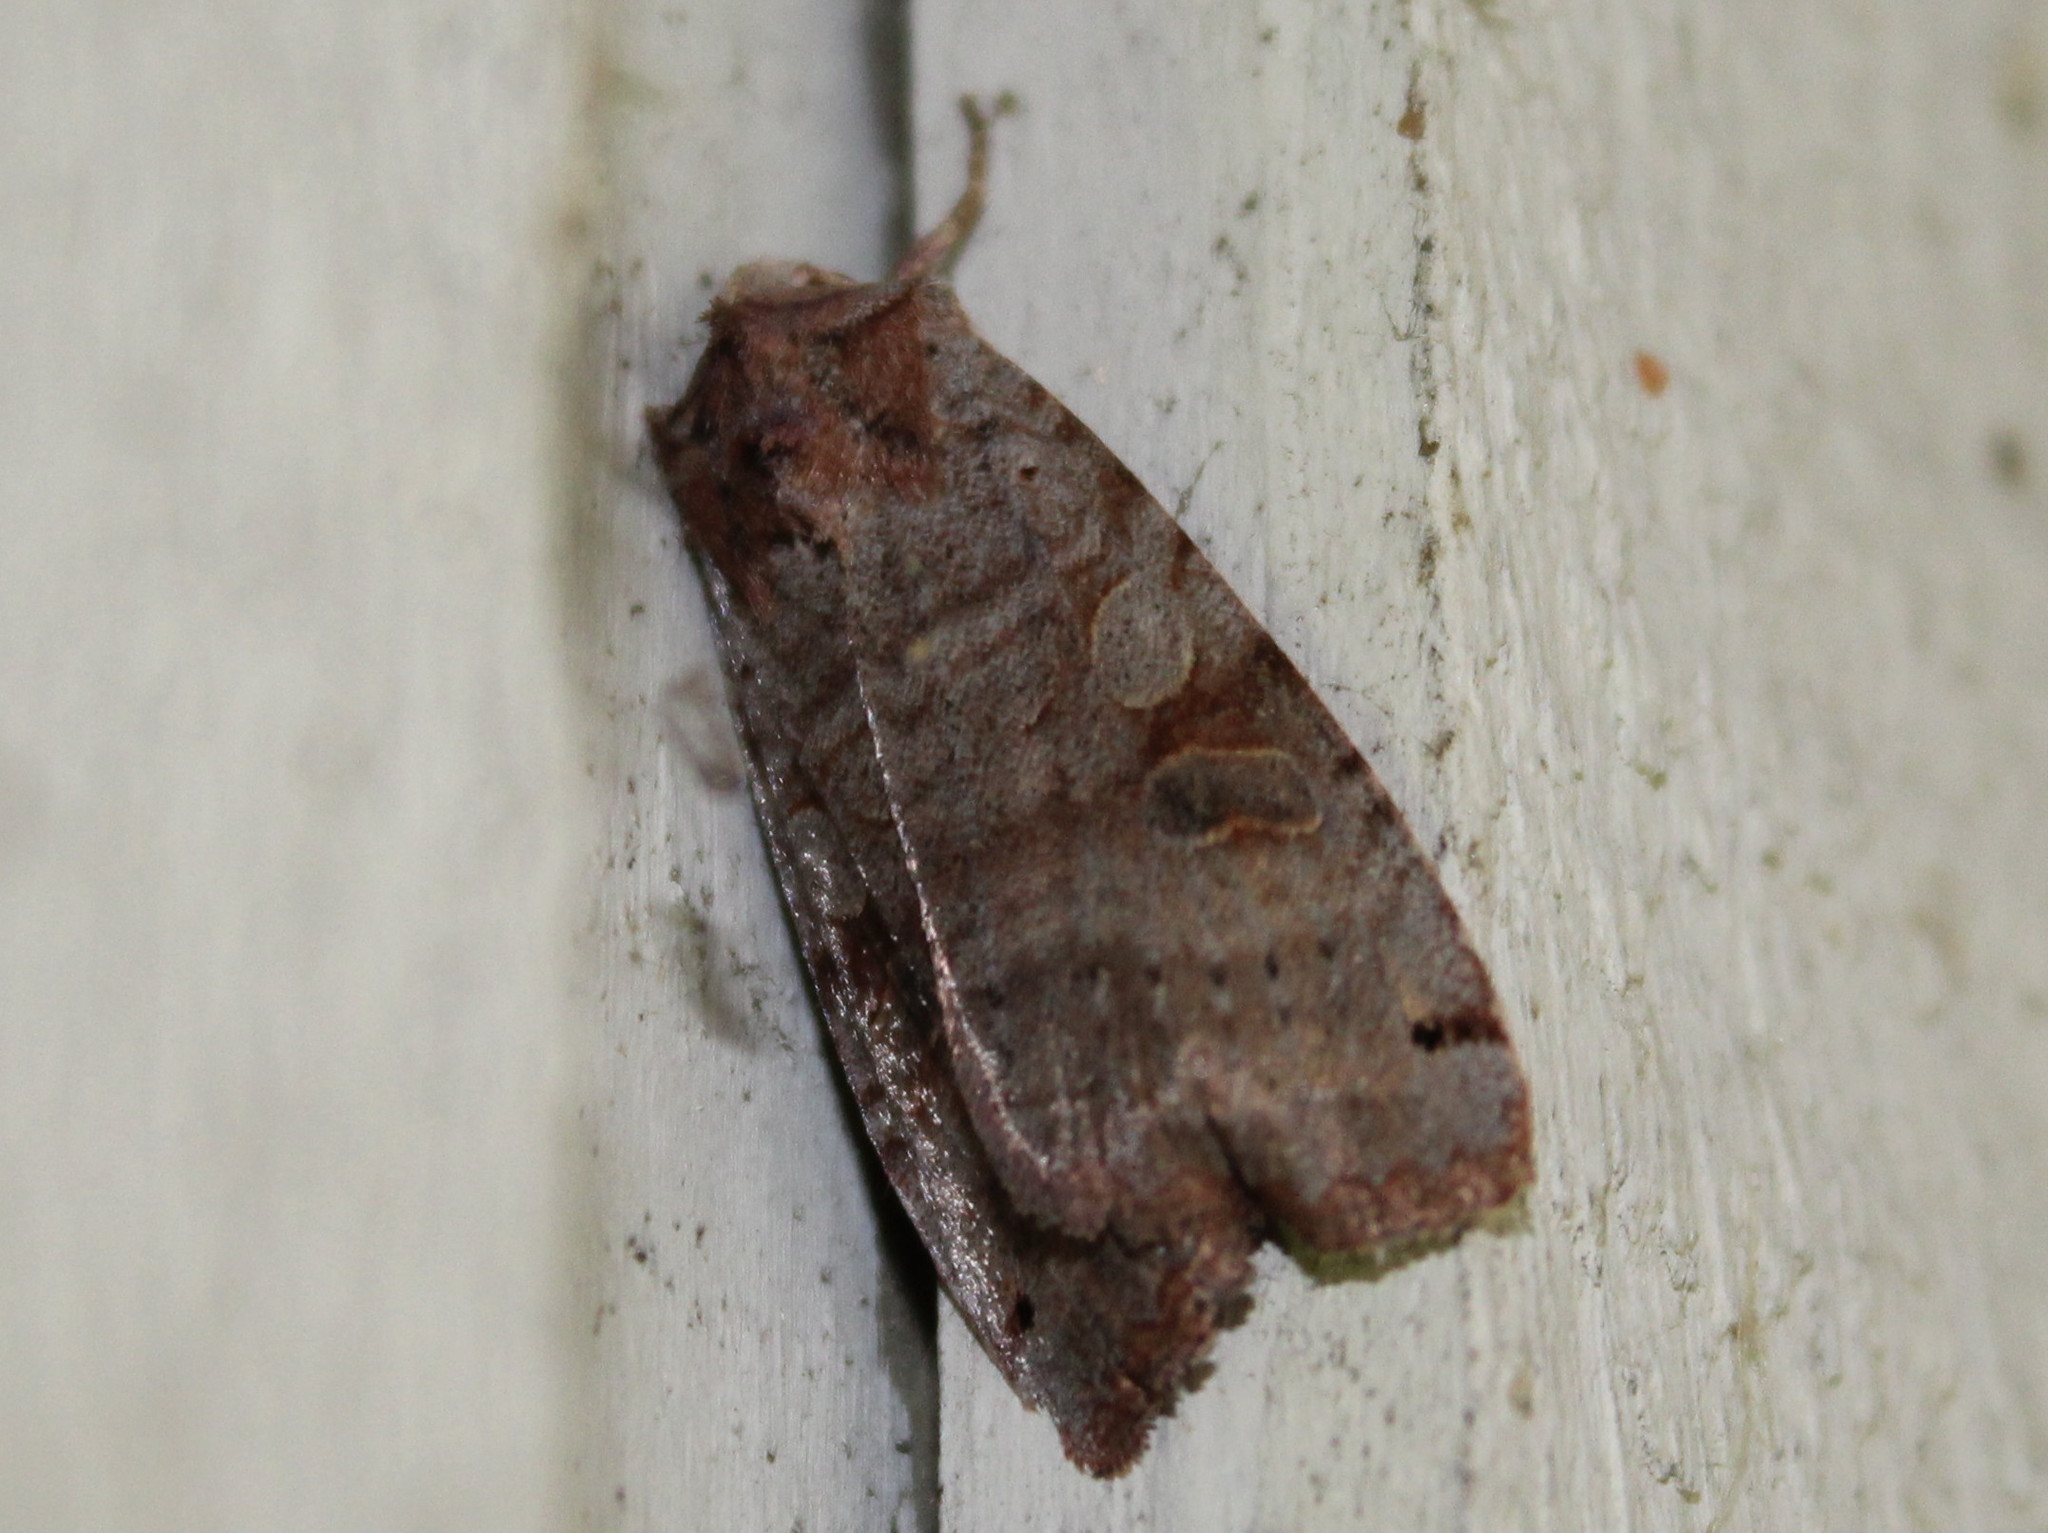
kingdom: Animalia
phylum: Arthropoda
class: Insecta
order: Lepidoptera
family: Noctuidae
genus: Xestia
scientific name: Xestia smithii
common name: Smith's dart
